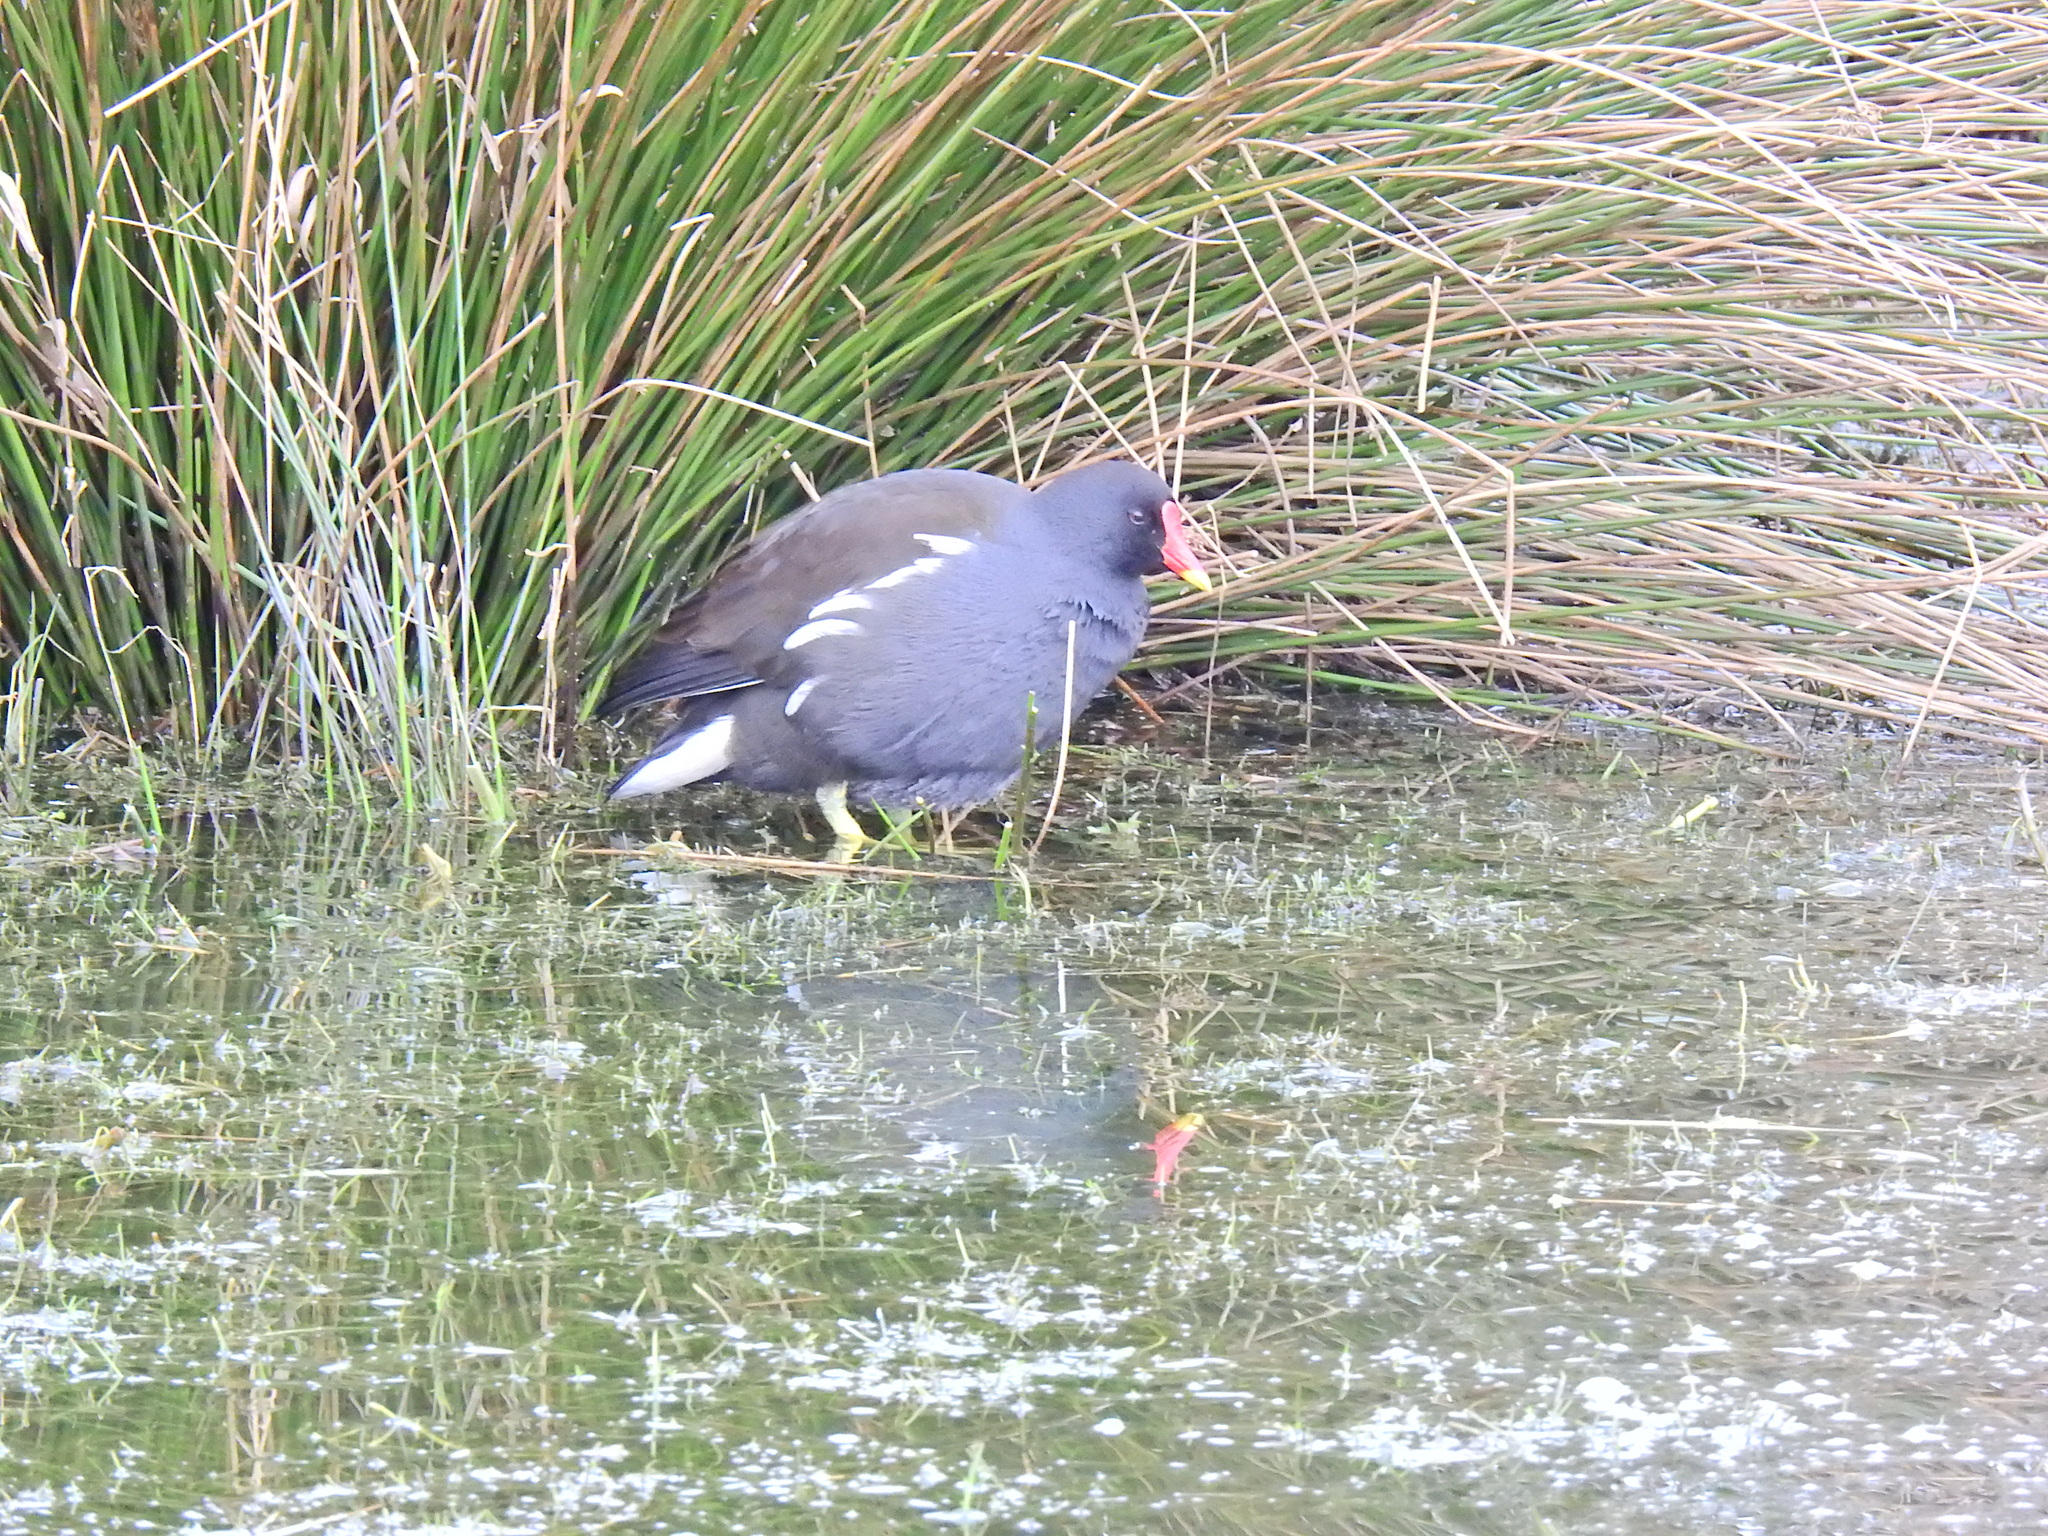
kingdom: Animalia
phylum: Chordata
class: Aves
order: Gruiformes
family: Rallidae
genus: Gallinula
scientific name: Gallinula chloropus
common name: Common moorhen
